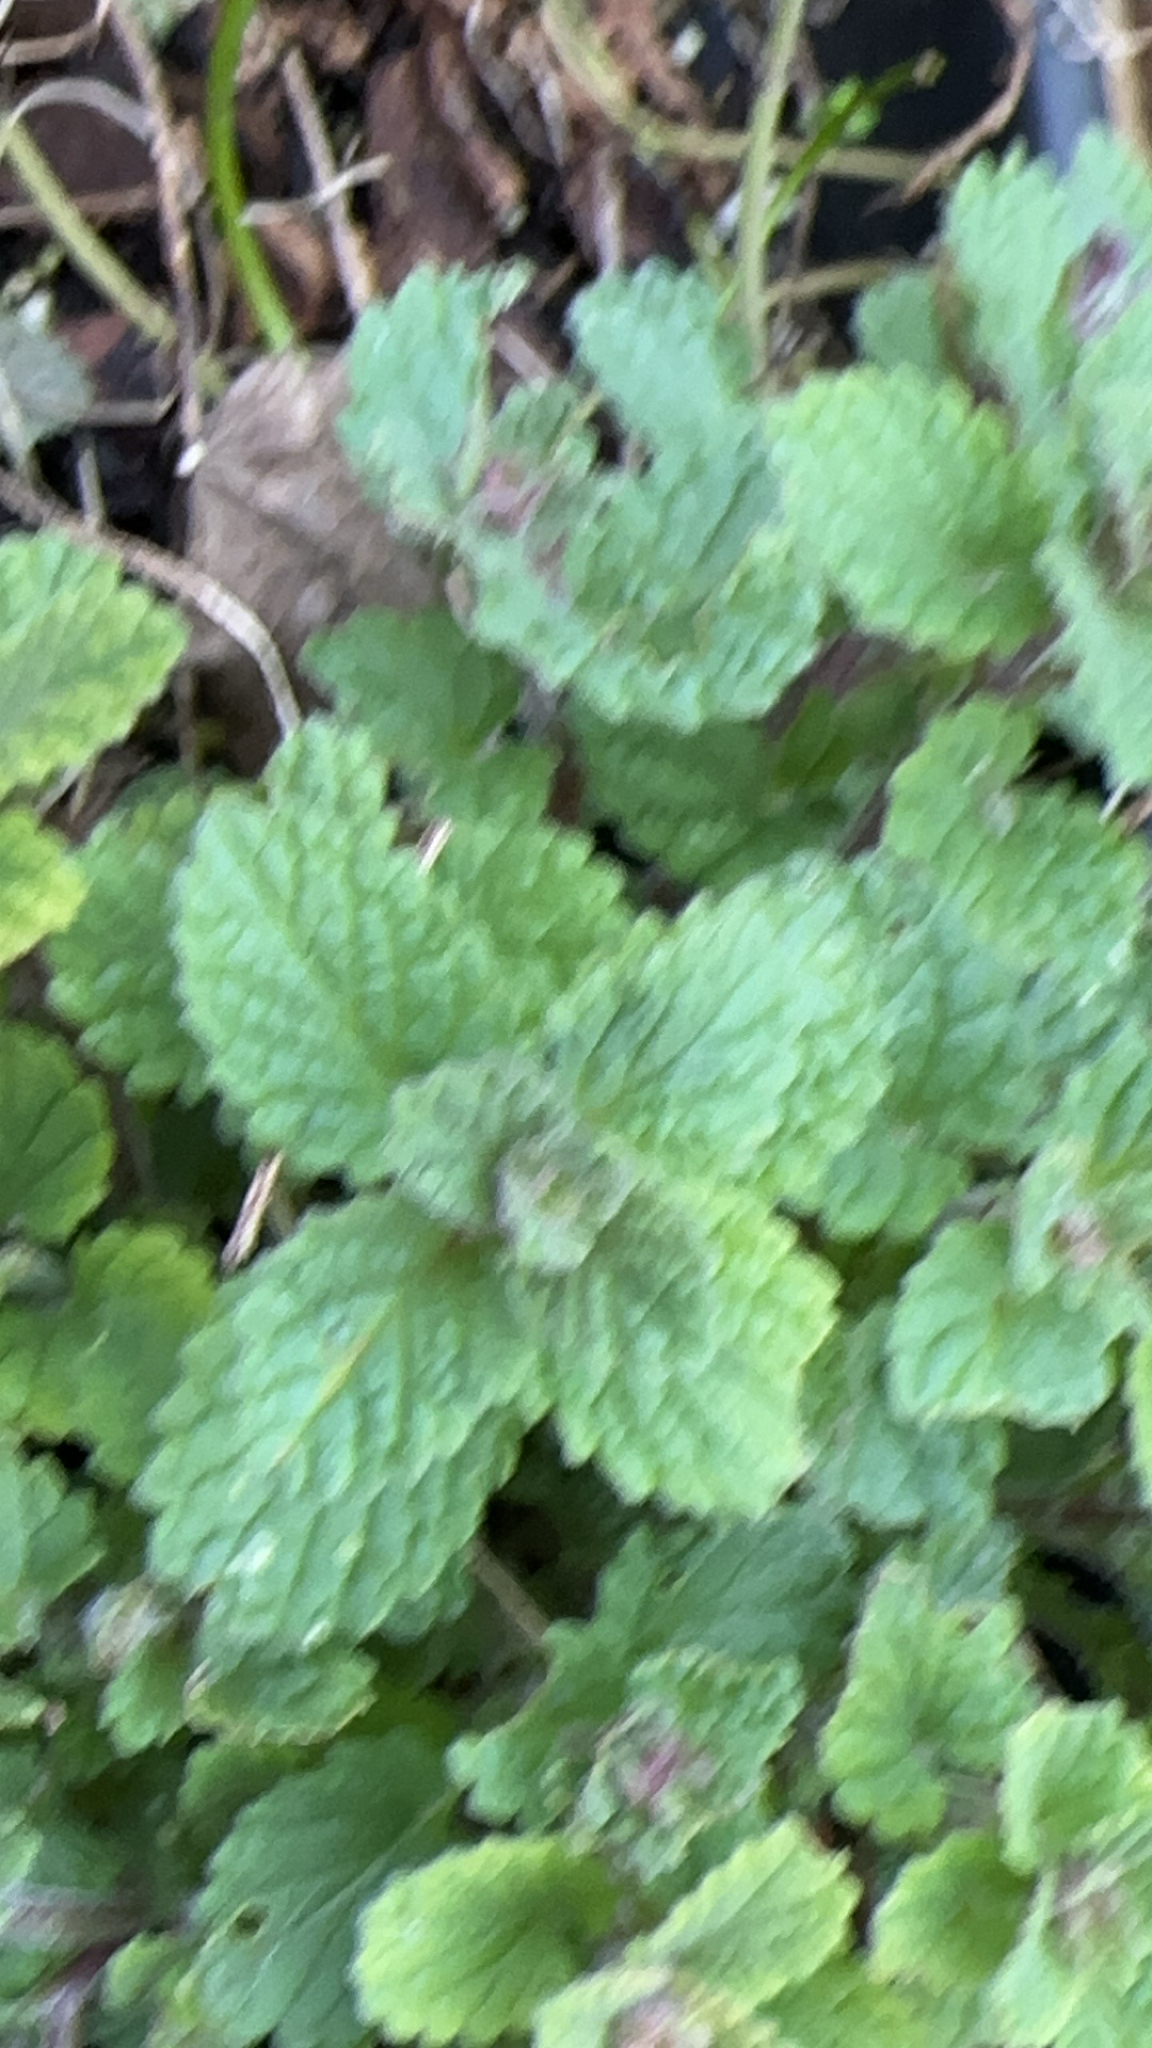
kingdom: Plantae
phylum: Tracheophyta
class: Magnoliopsida
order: Lamiales
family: Lamiaceae
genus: Melissa
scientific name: Melissa officinalis
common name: Balm
